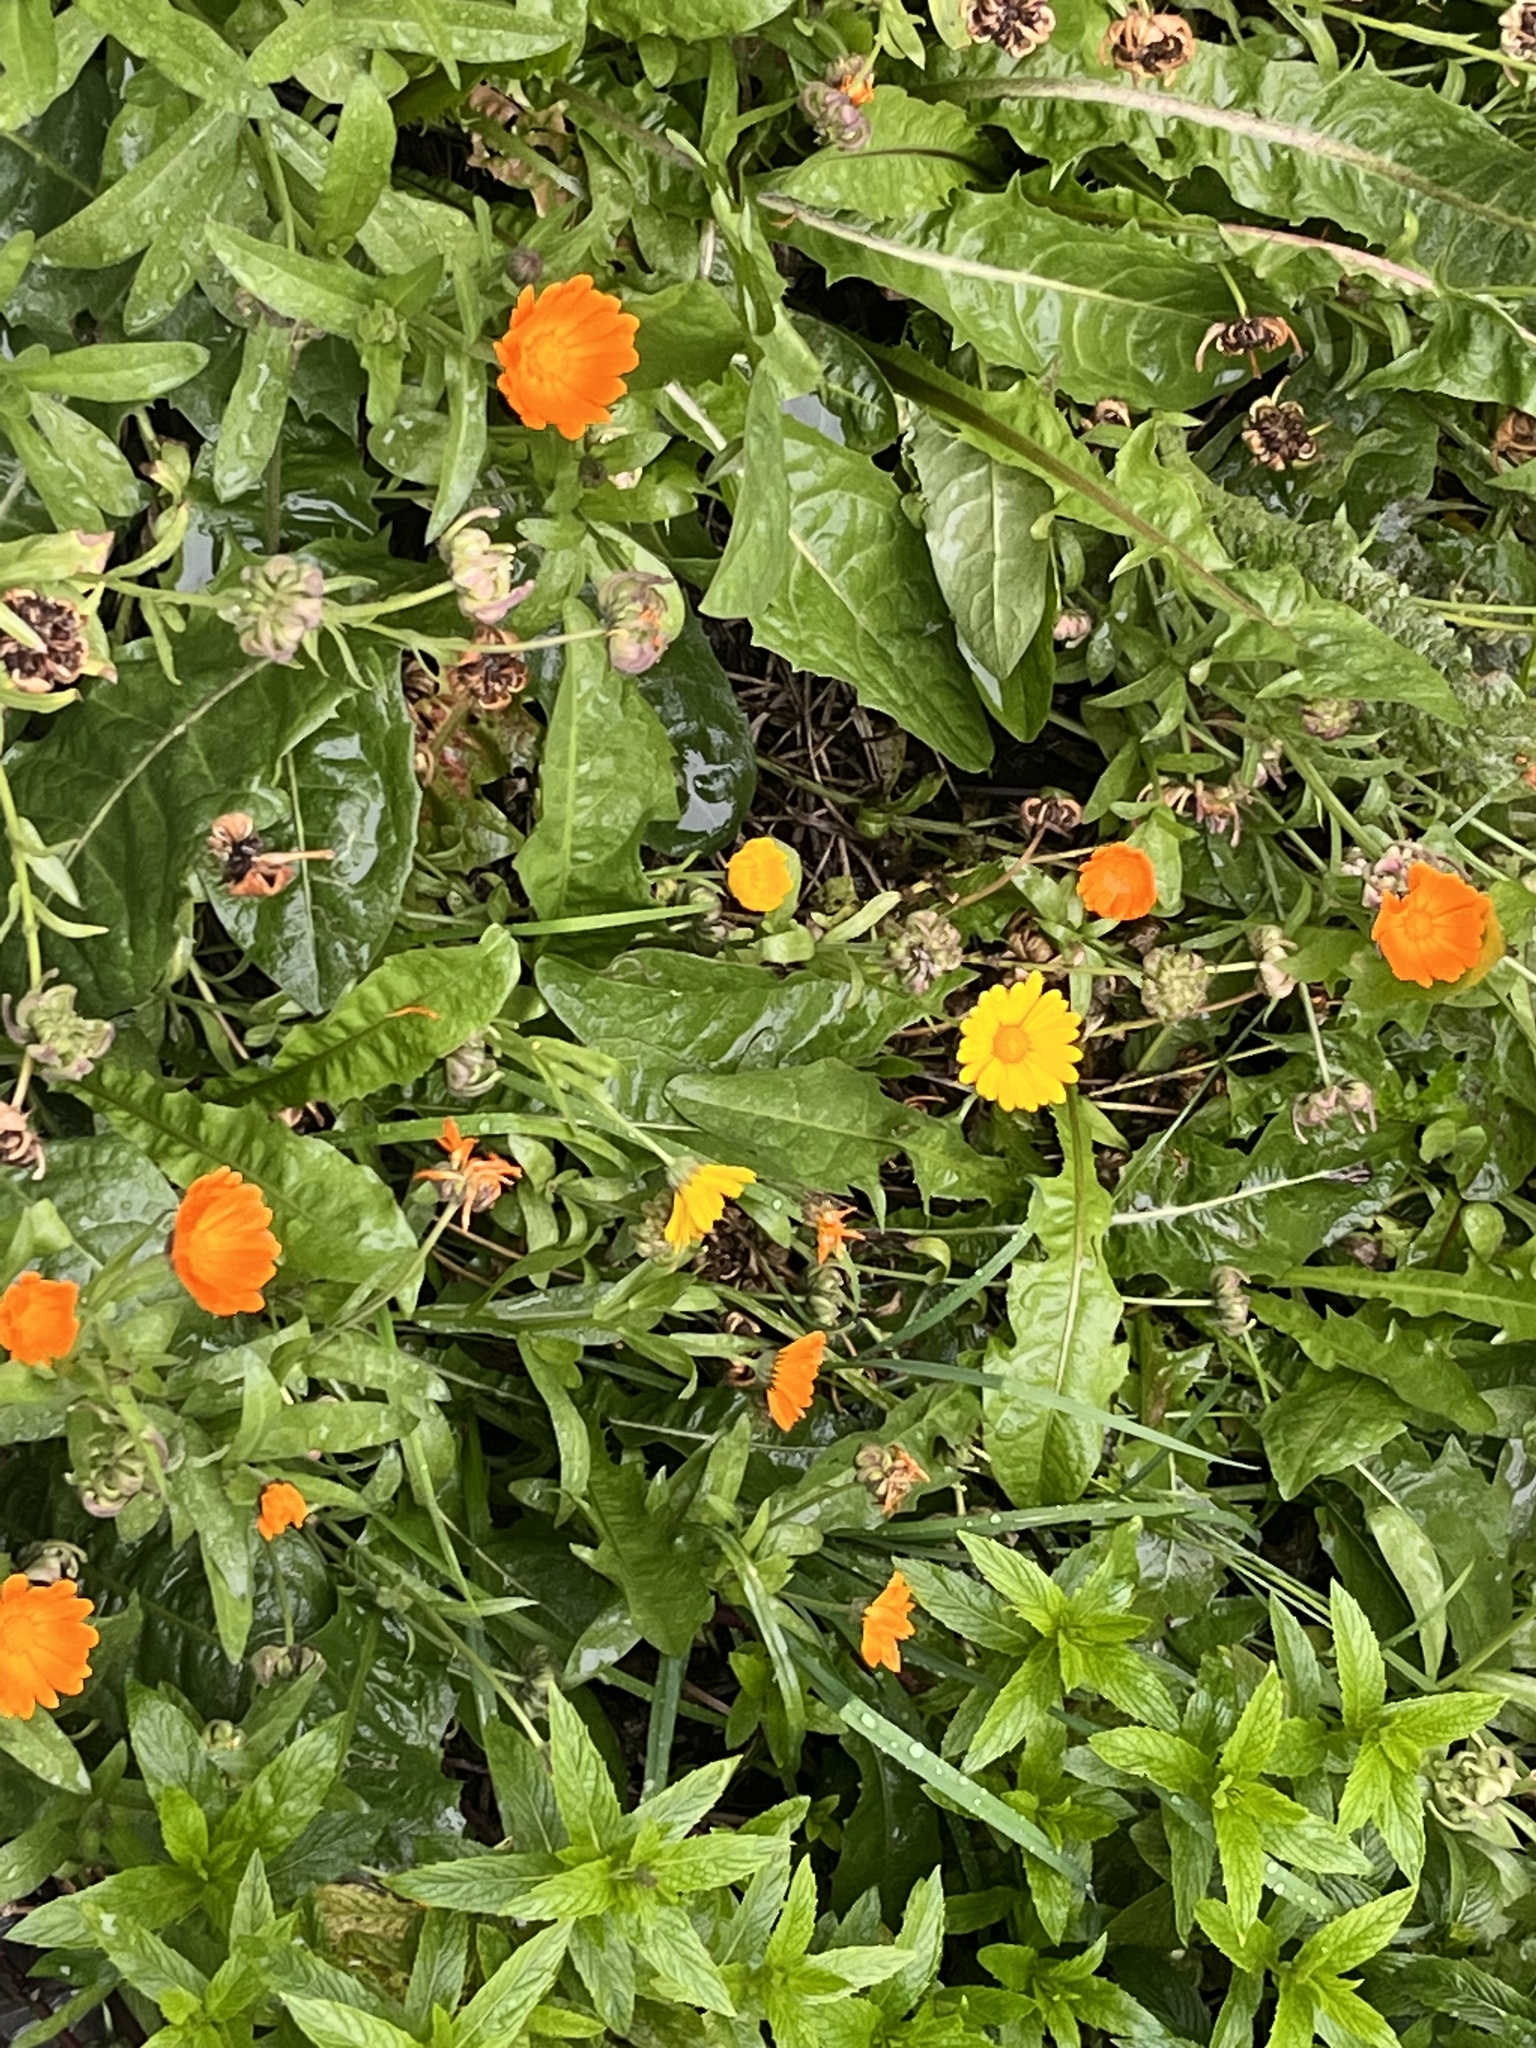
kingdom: Plantae
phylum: Tracheophyta
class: Magnoliopsida
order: Asterales
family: Asteraceae
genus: Calendula
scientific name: Calendula officinalis
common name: Pot marigold
